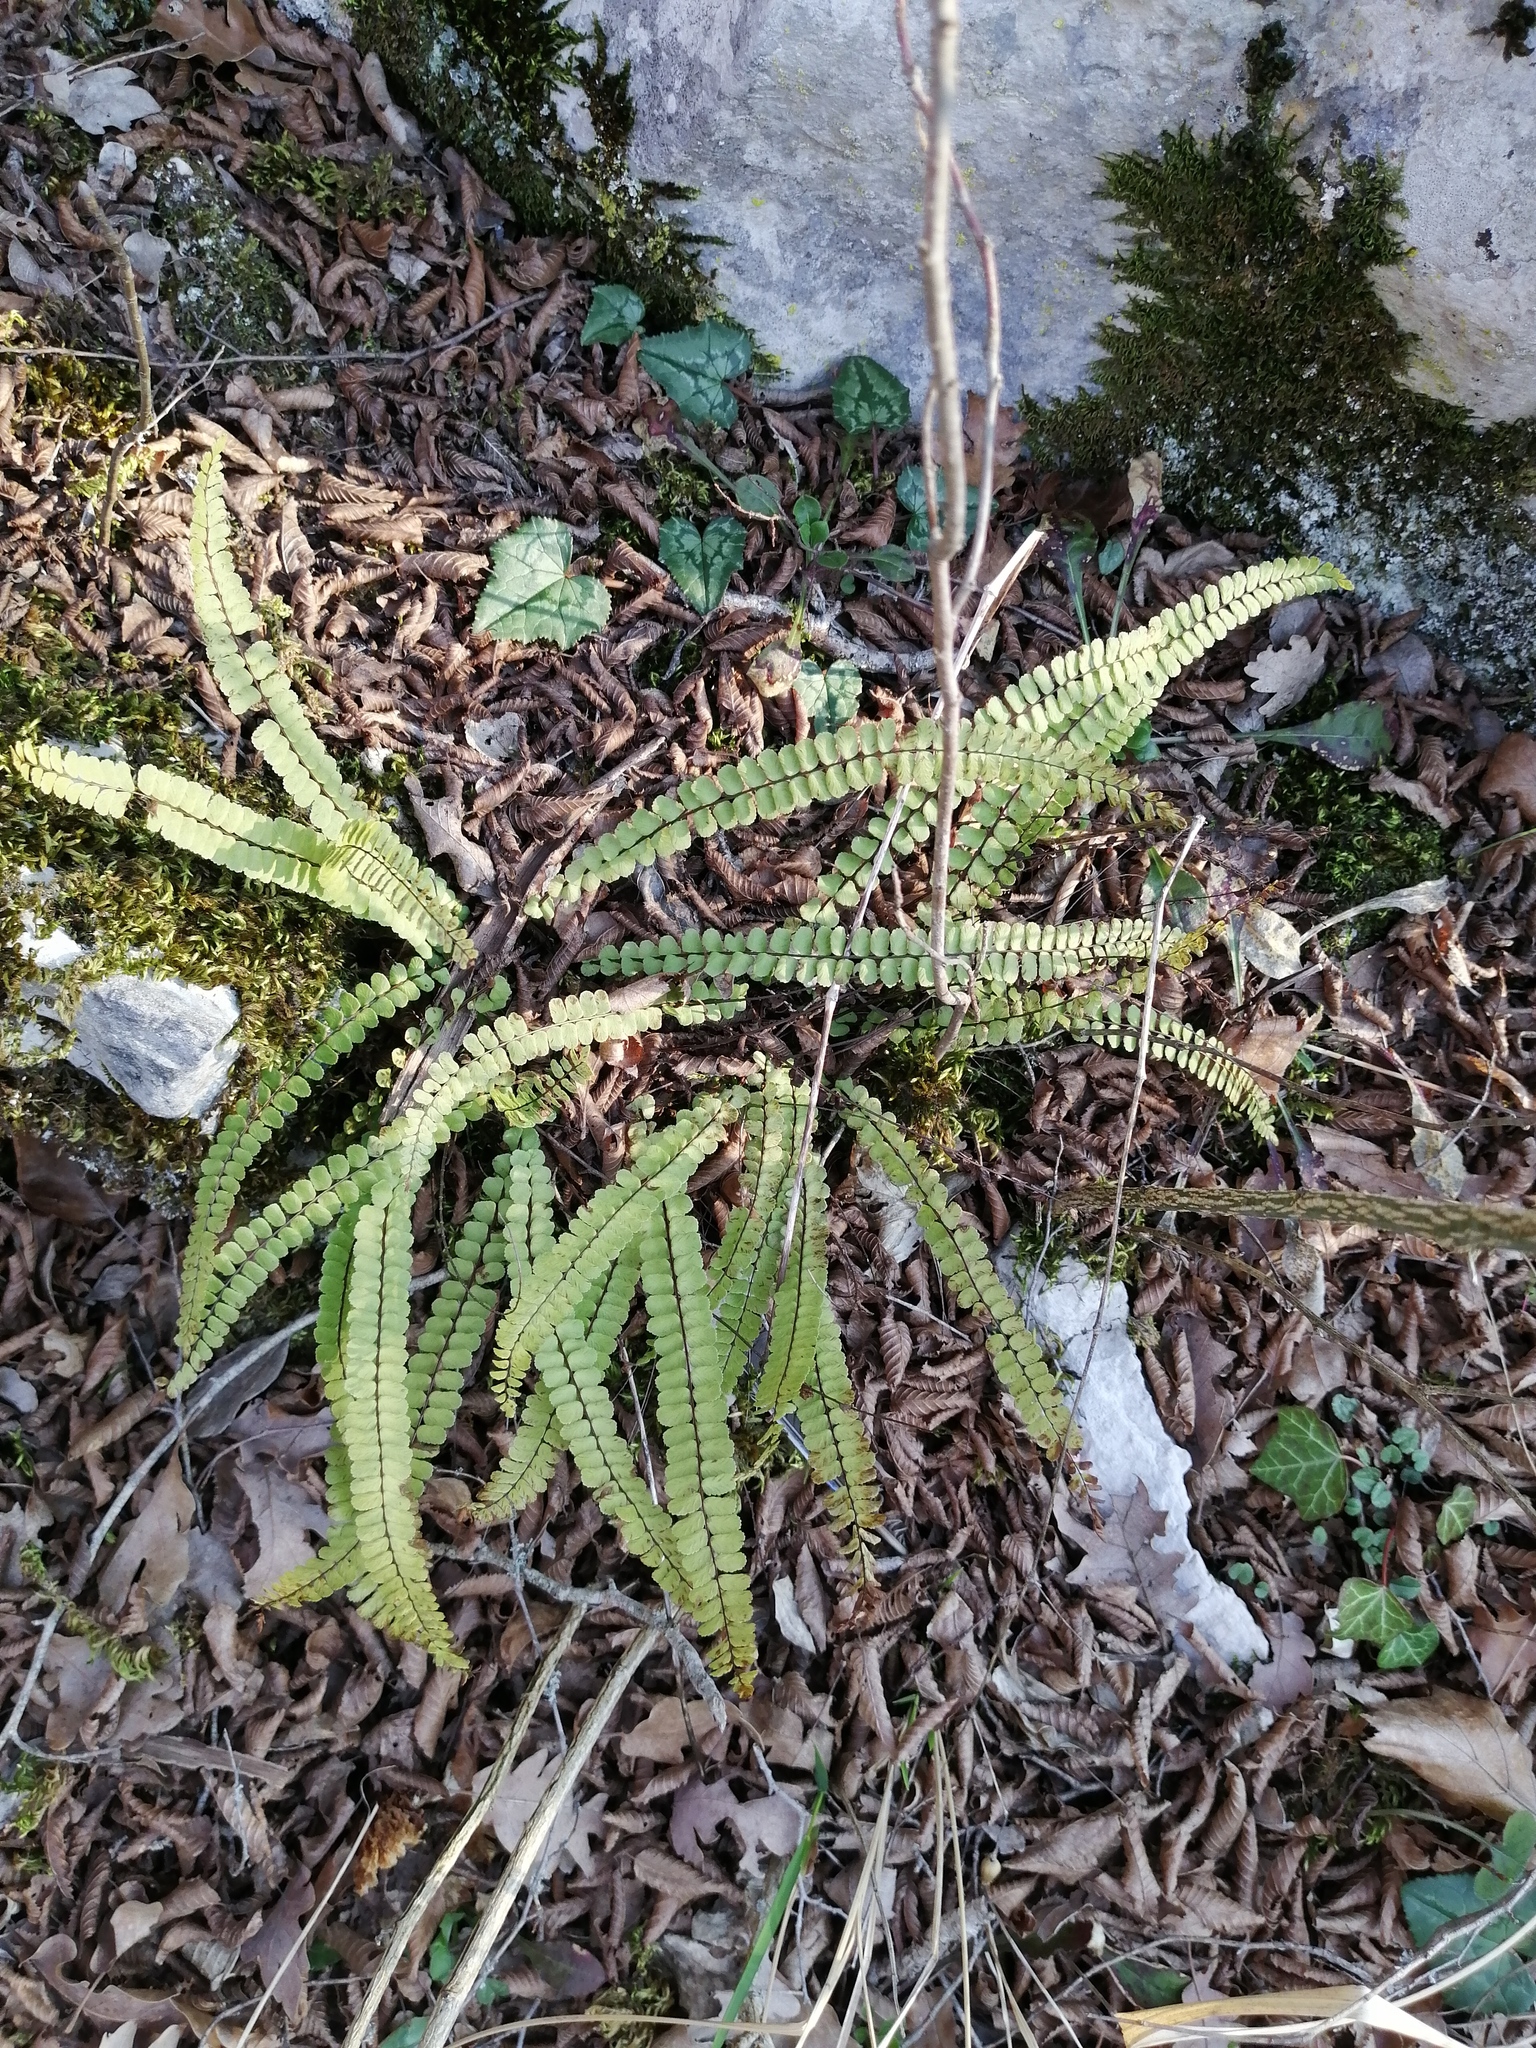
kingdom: Plantae
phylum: Tracheophyta
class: Polypodiopsida
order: Polypodiales
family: Aspleniaceae
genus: Asplenium
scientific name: Asplenium trichomanes
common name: Maidenhair spleenwort
